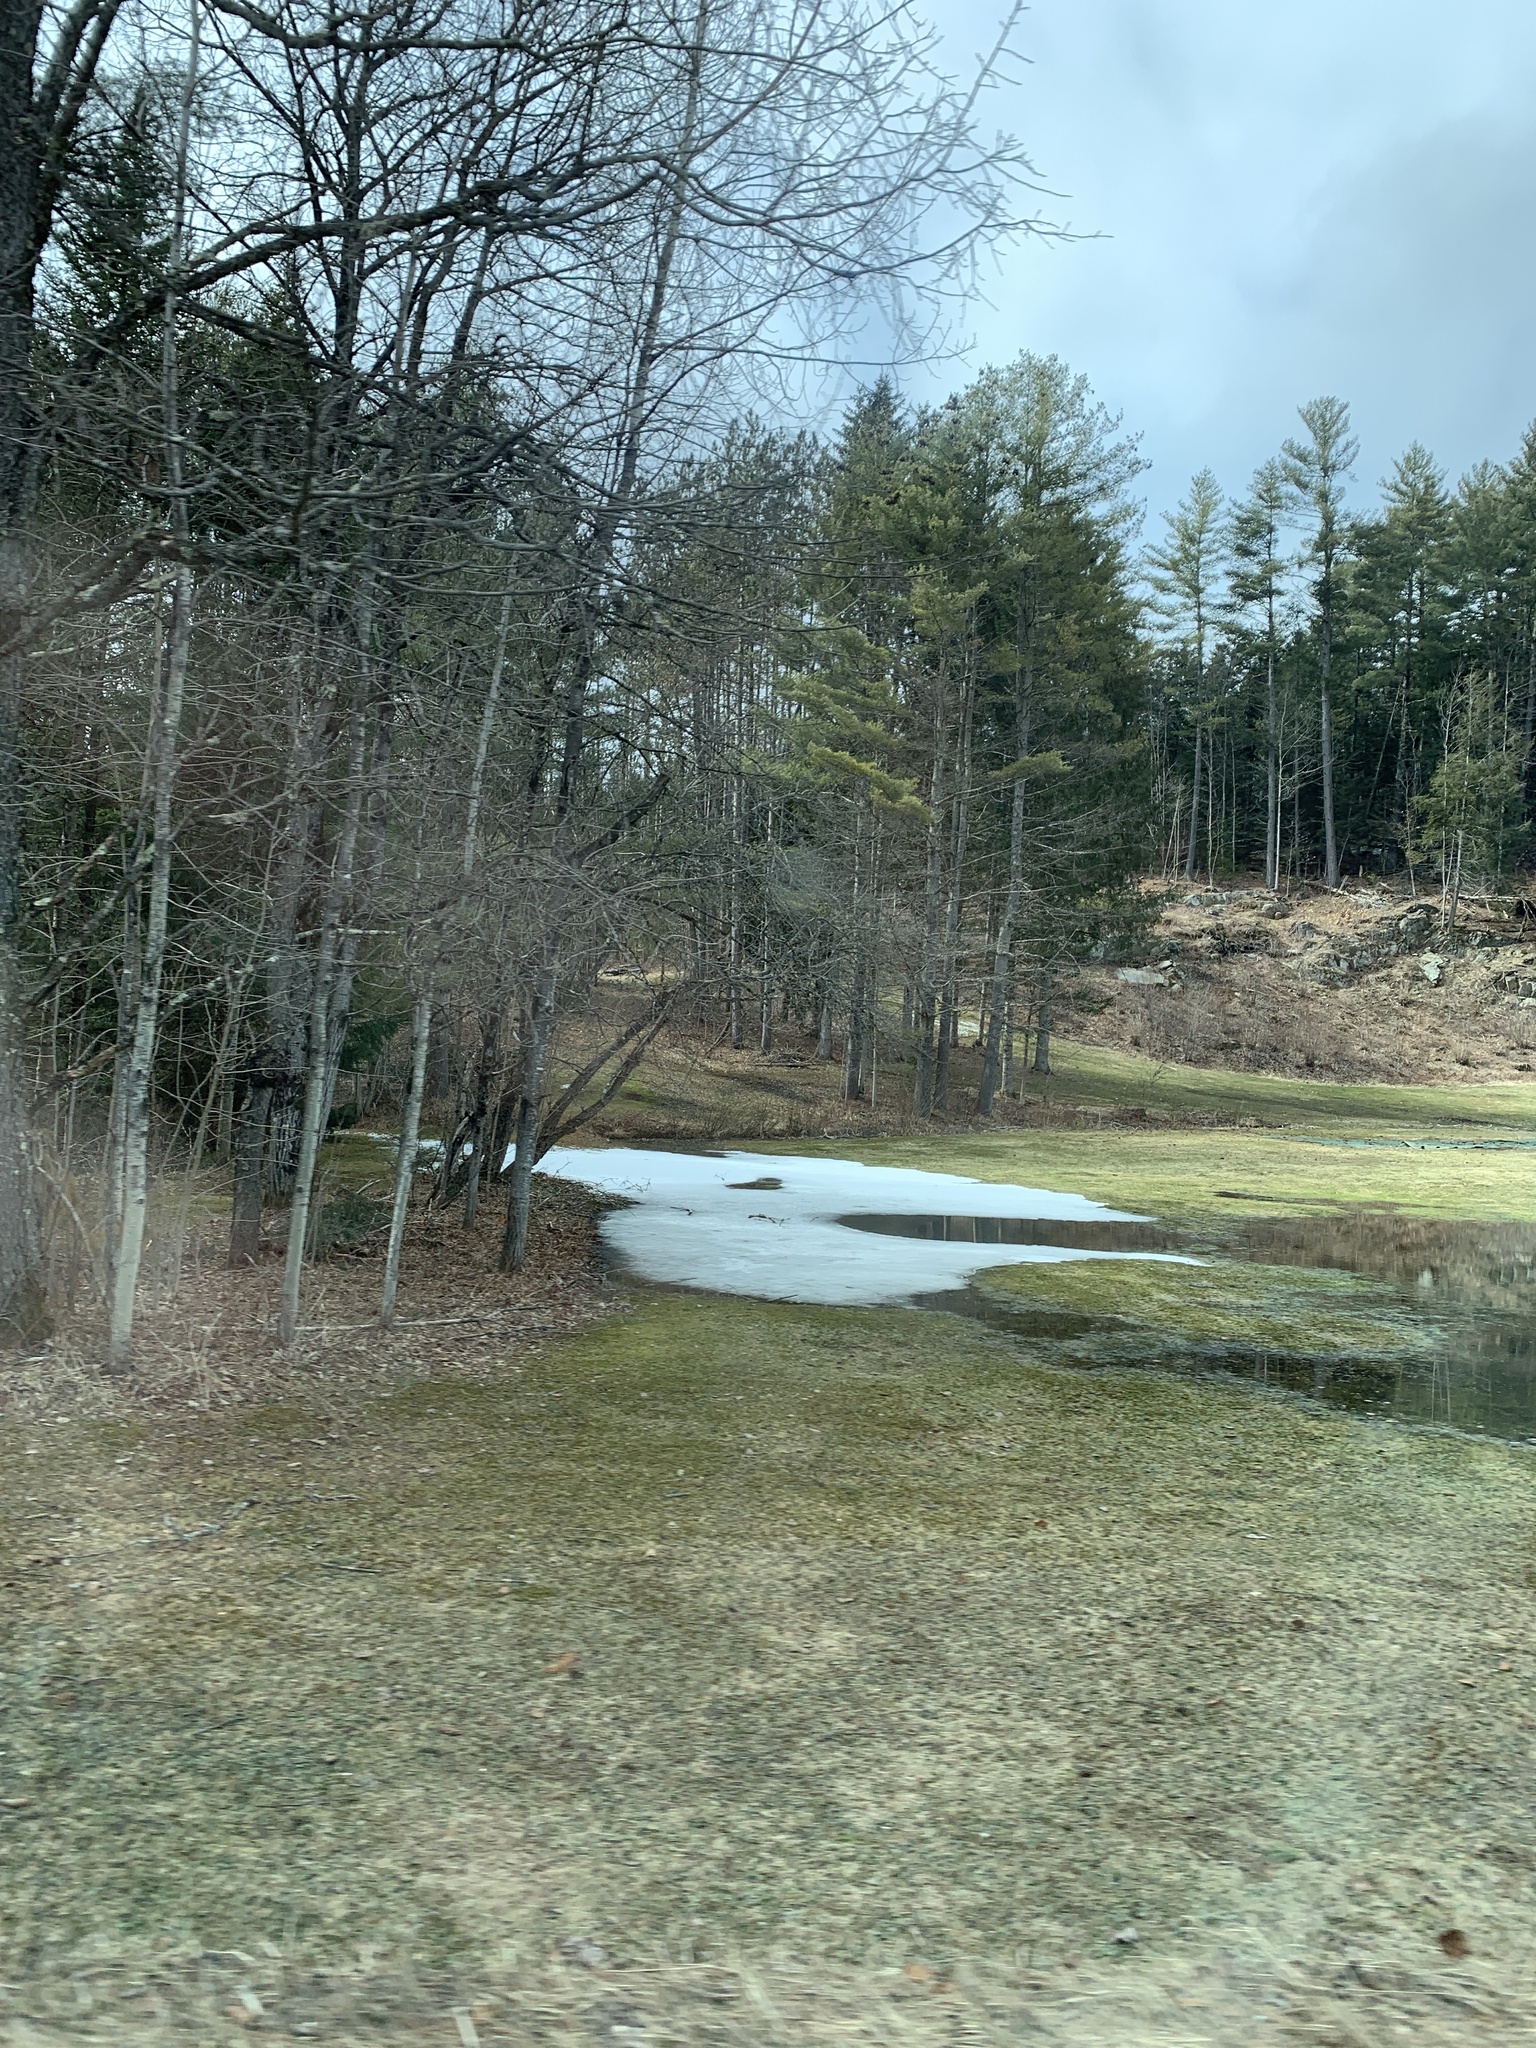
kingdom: Plantae
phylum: Tracheophyta
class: Pinopsida
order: Pinales
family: Pinaceae
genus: Pinus
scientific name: Pinus strobus
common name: Weymouth pine
